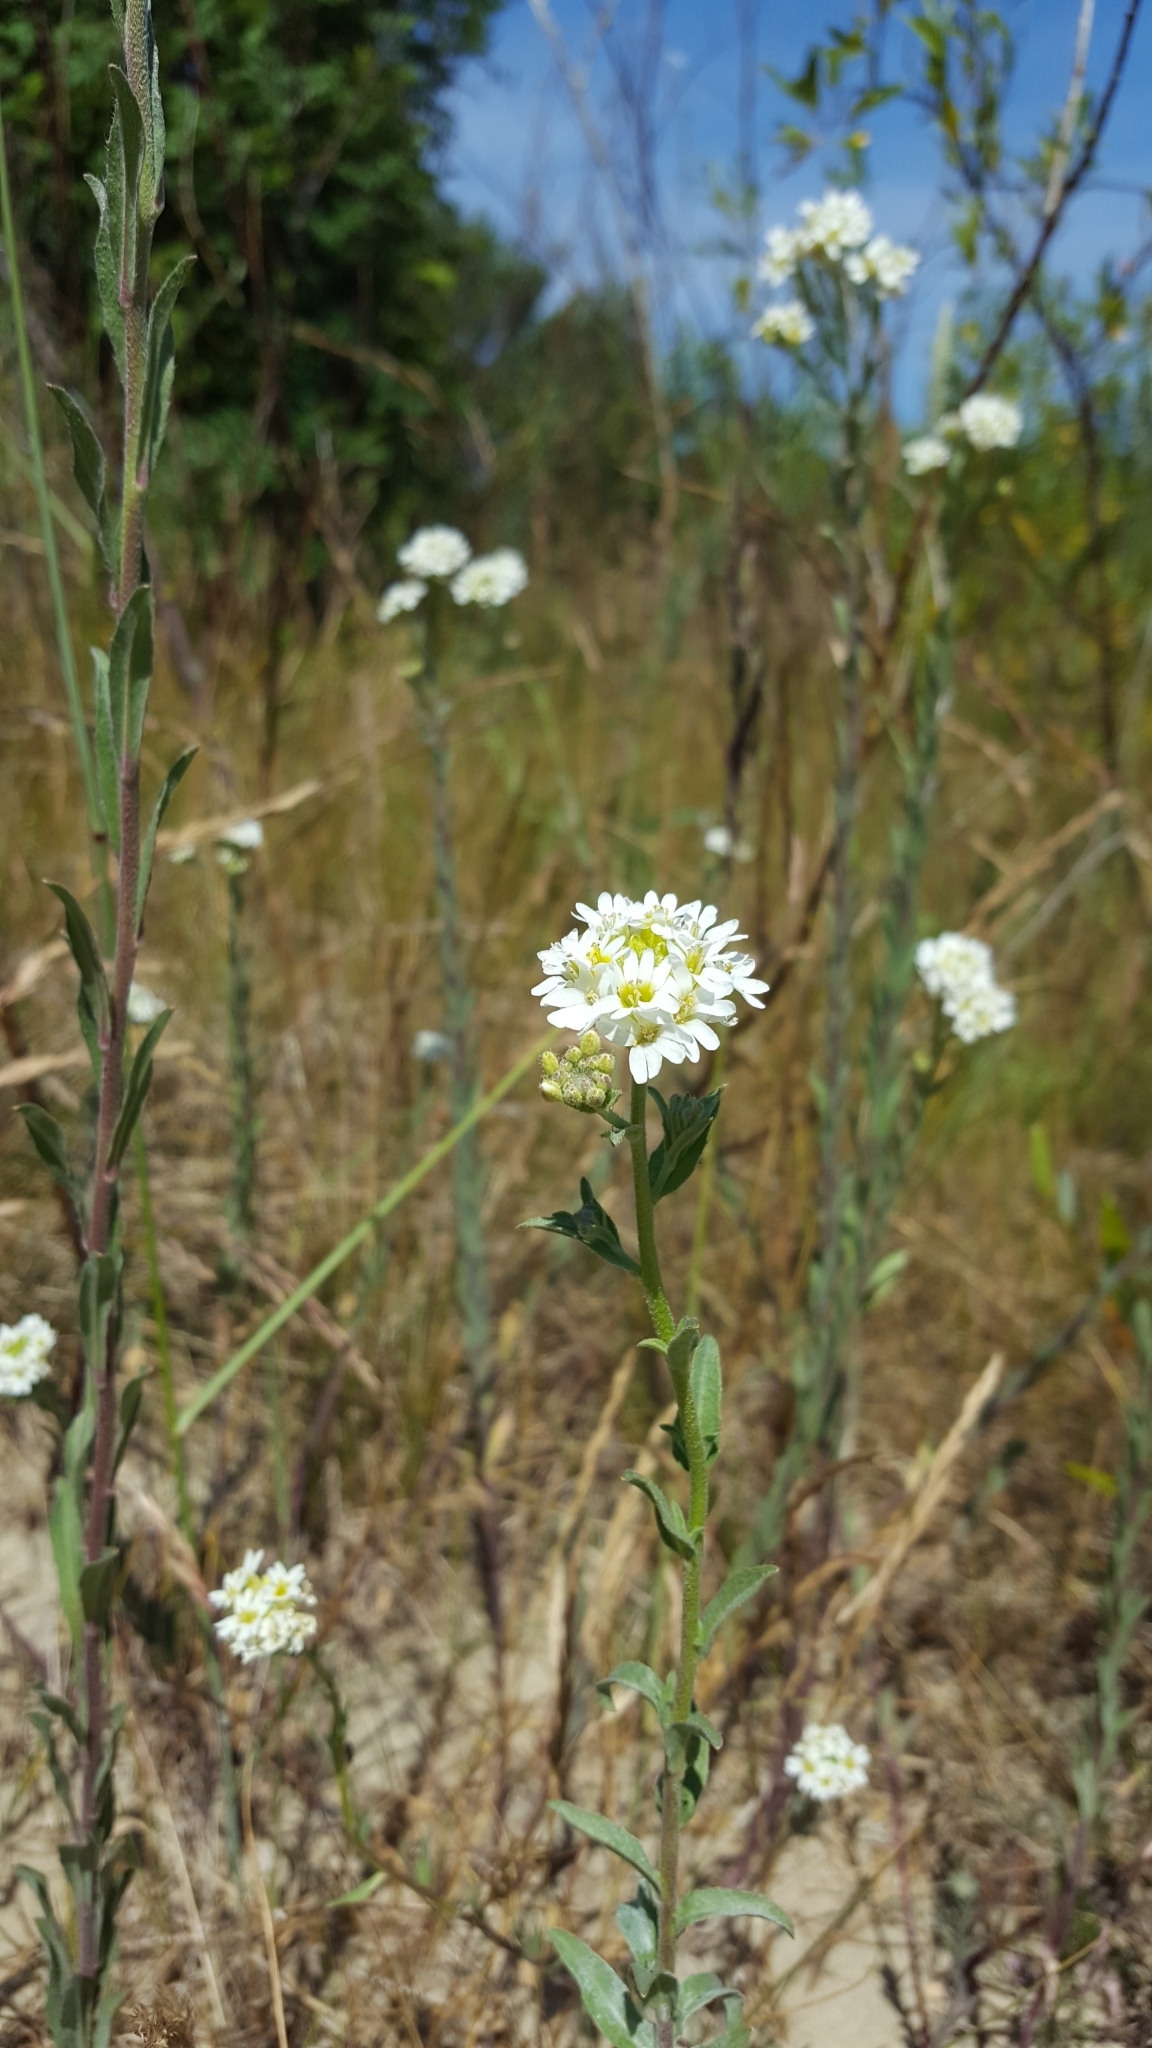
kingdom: Plantae
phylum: Tracheophyta
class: Magnoliopsida
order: Brassicales
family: Brassicaceae
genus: Berteroa
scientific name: Berteroa incana
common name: Hoary alison
